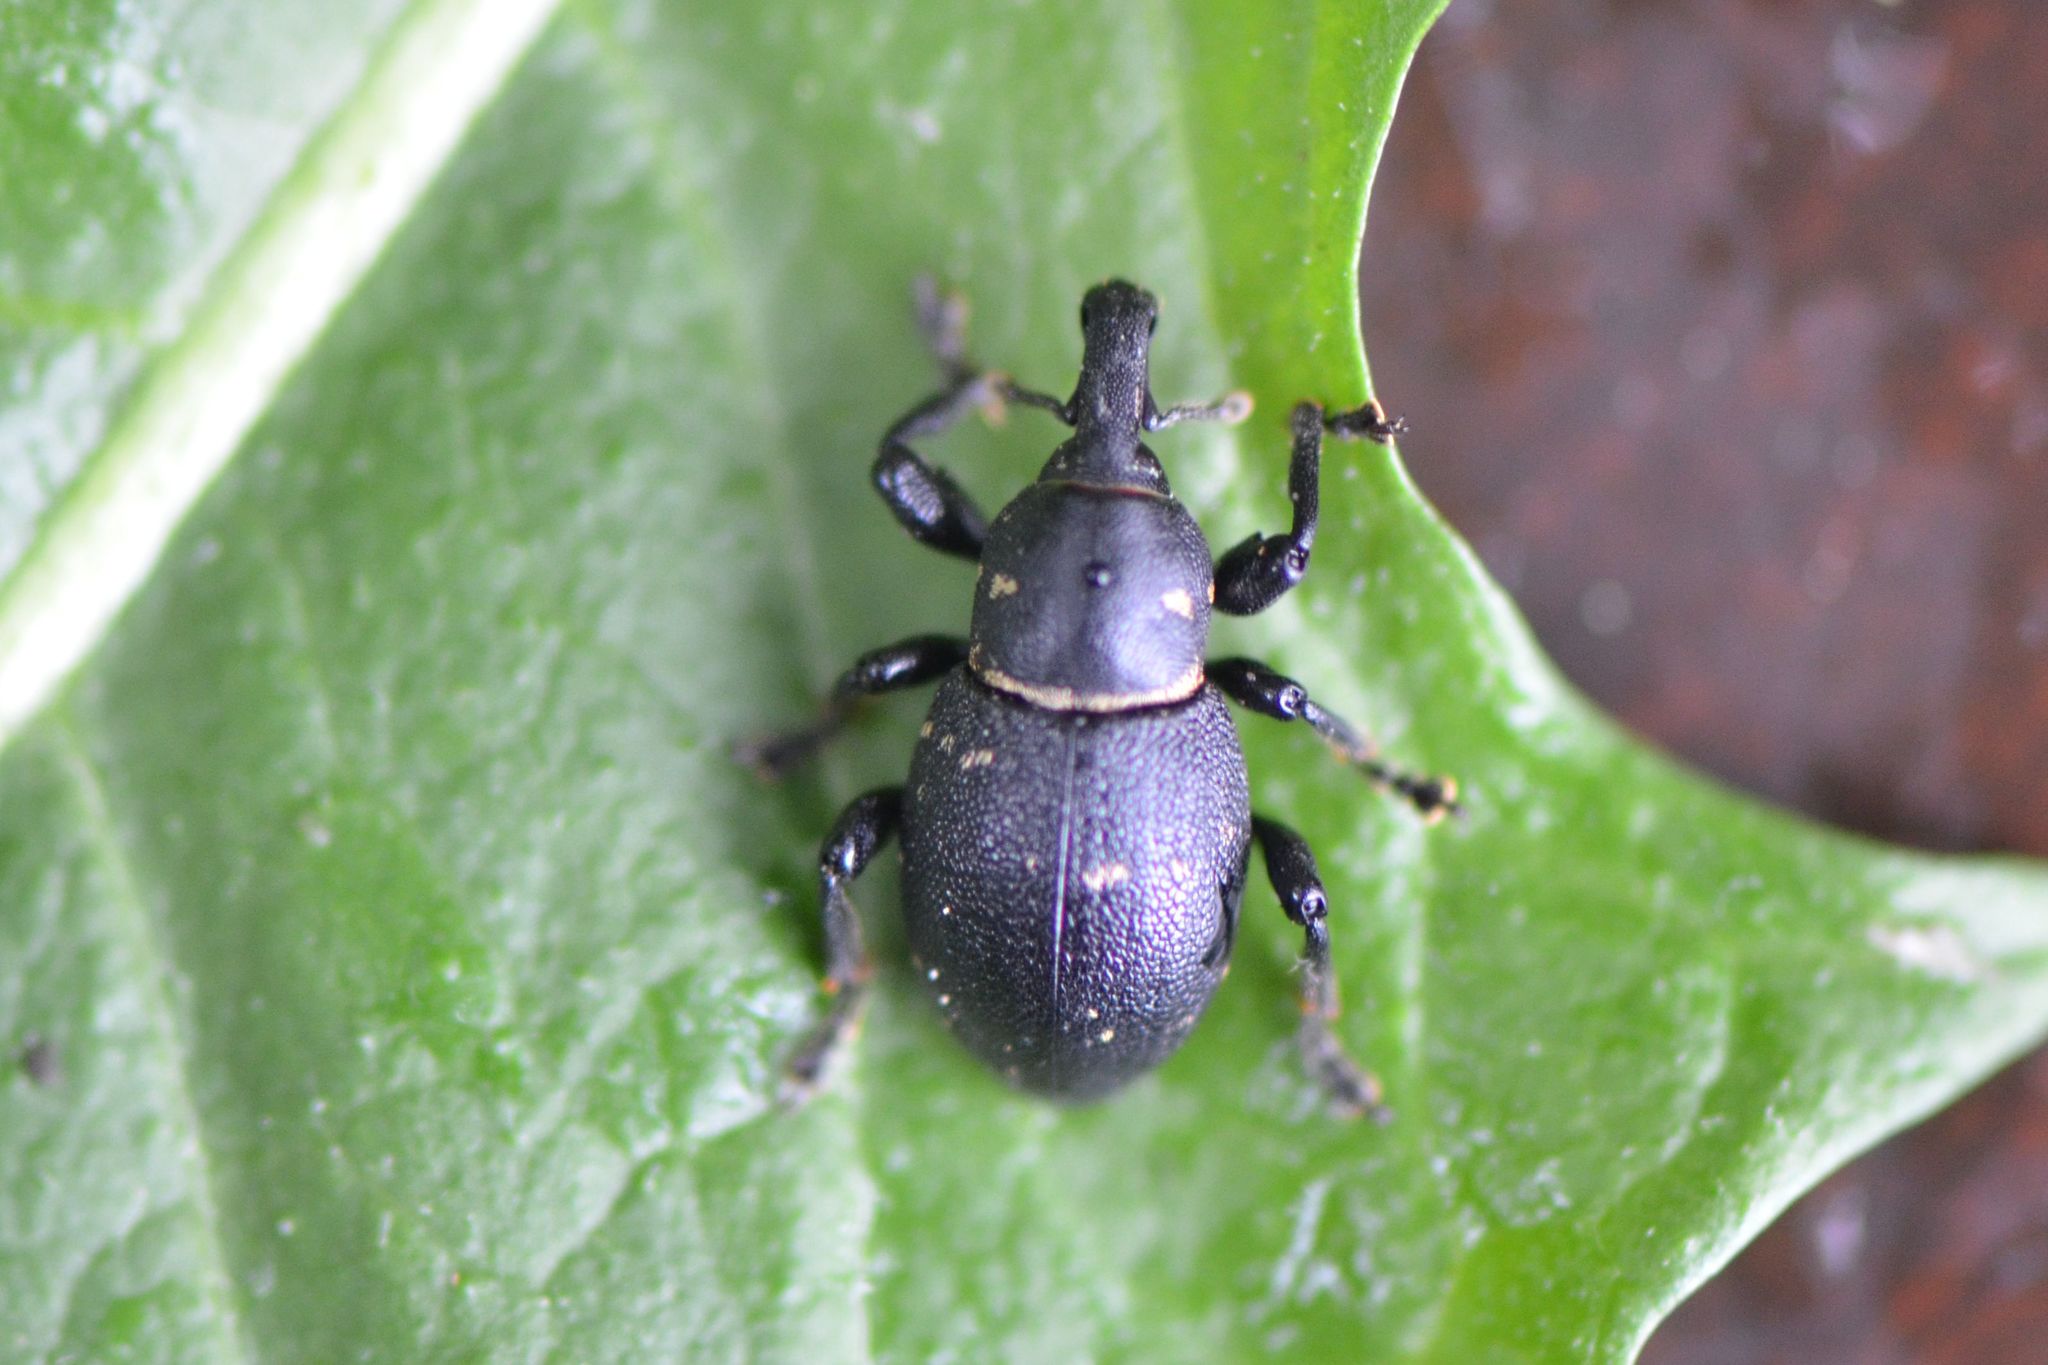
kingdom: Animalia
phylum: Arthropoda
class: Insecta
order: Coleoptera
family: Curculionidae
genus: Liparus
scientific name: Liparus coronatus
